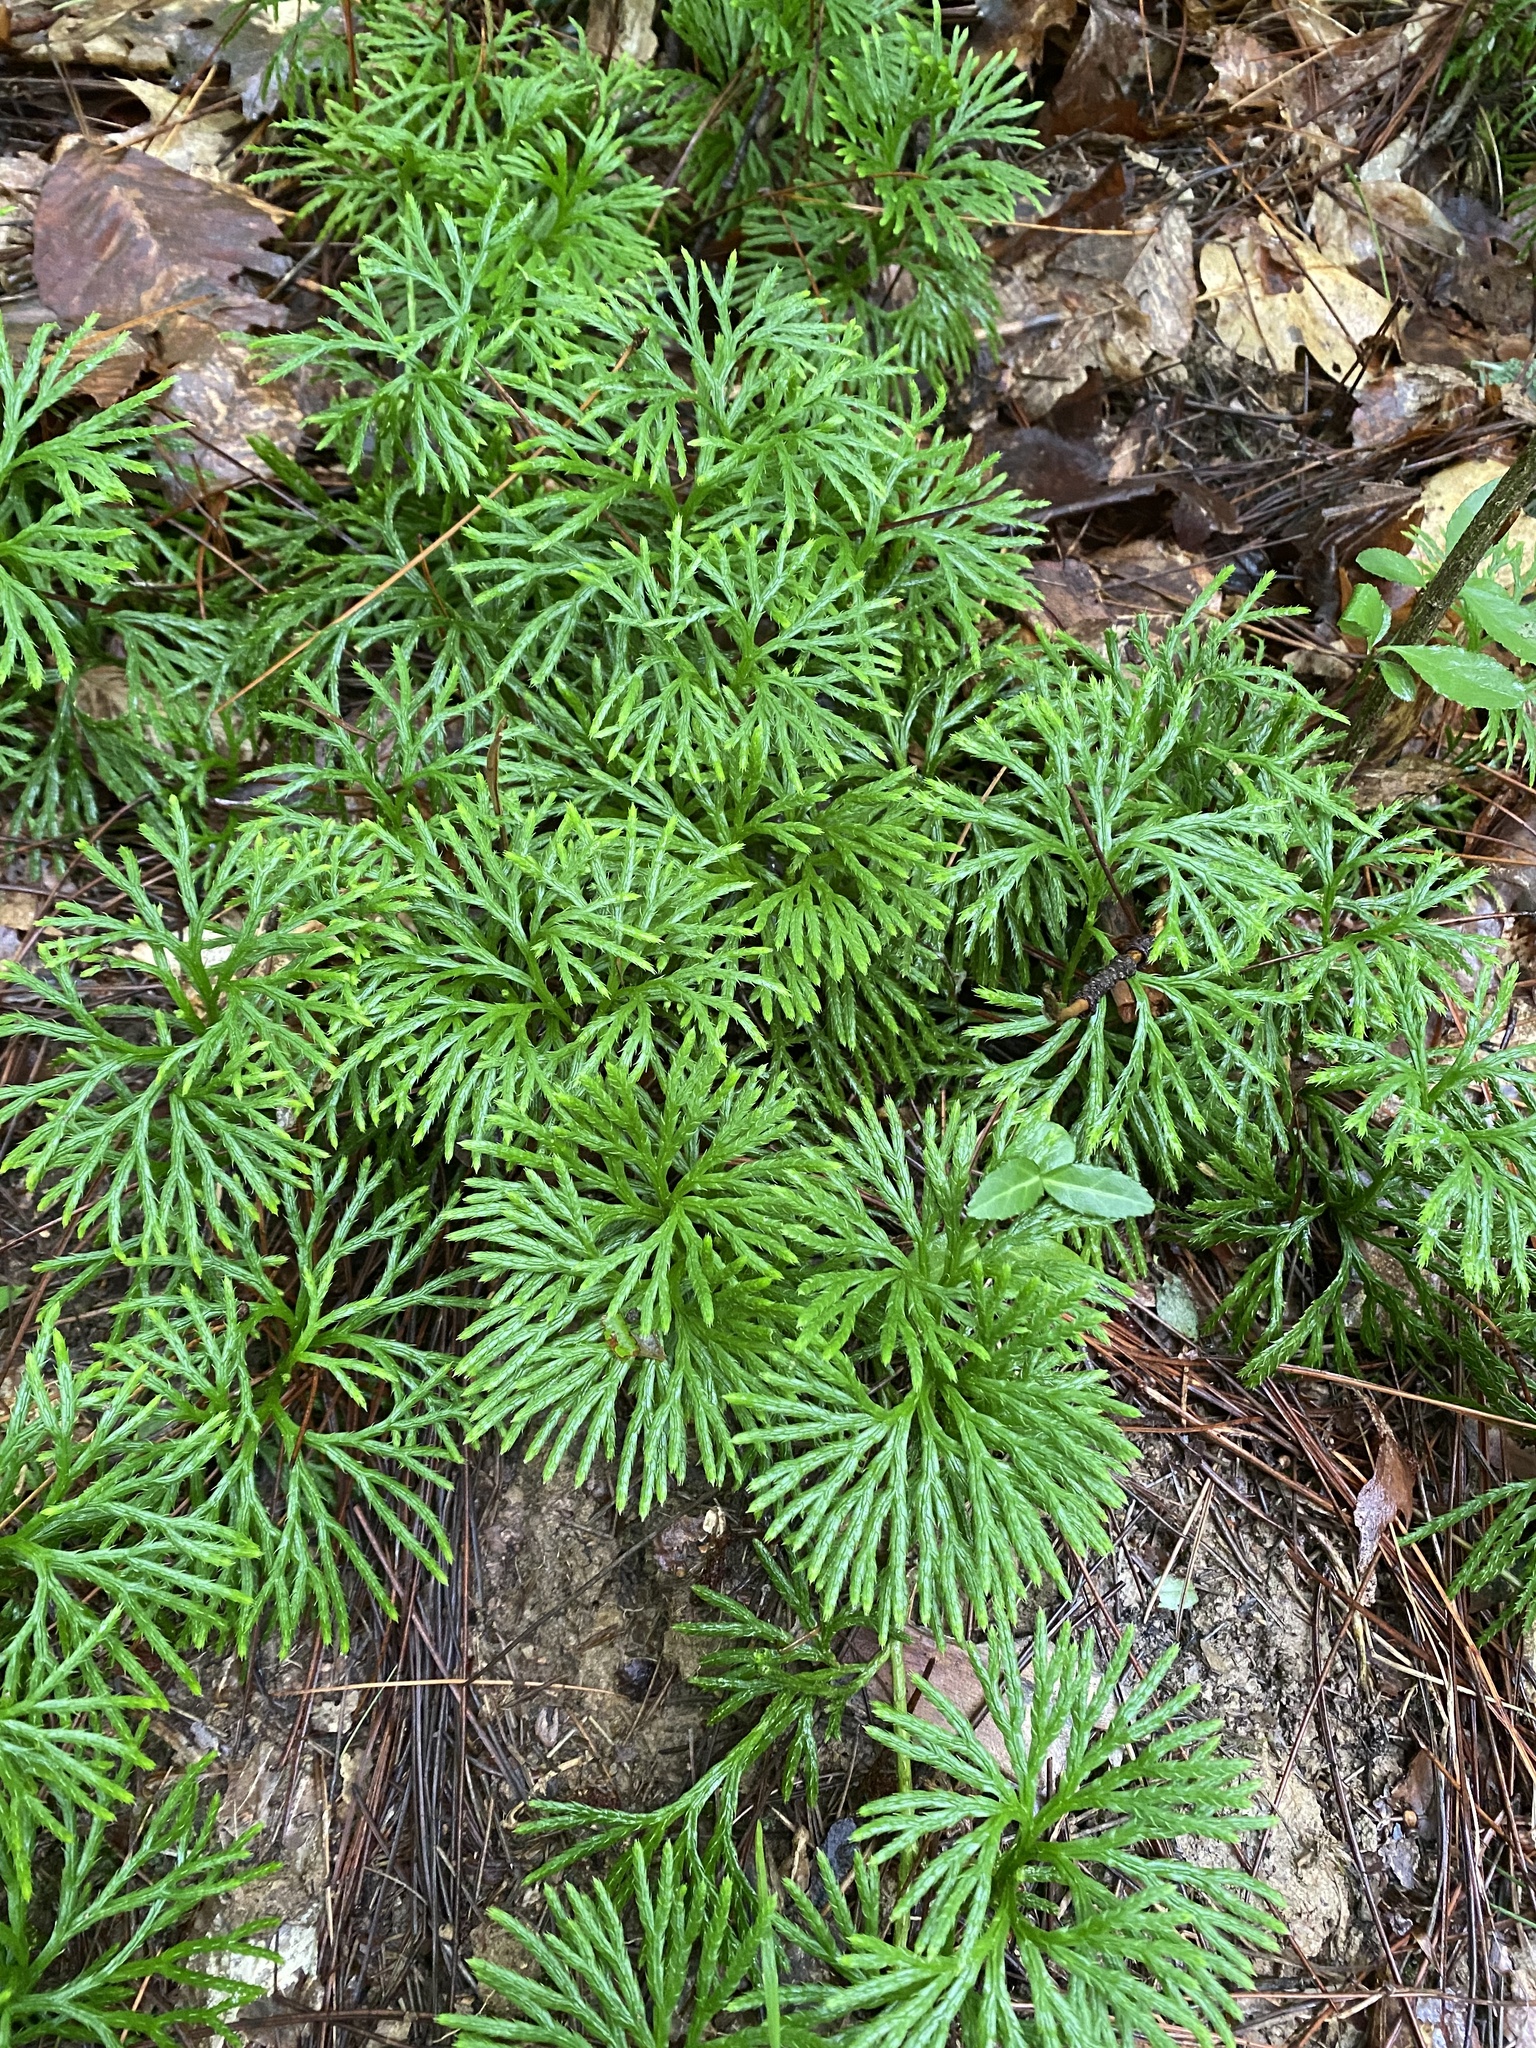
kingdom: Plantae
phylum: Tracheophyta
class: Lycopodiopsida
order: Lycopodiales
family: Lycopodiaceae
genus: Diphasiastrum
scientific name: Diphasiastrum digitatum
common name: Southern running-pine
